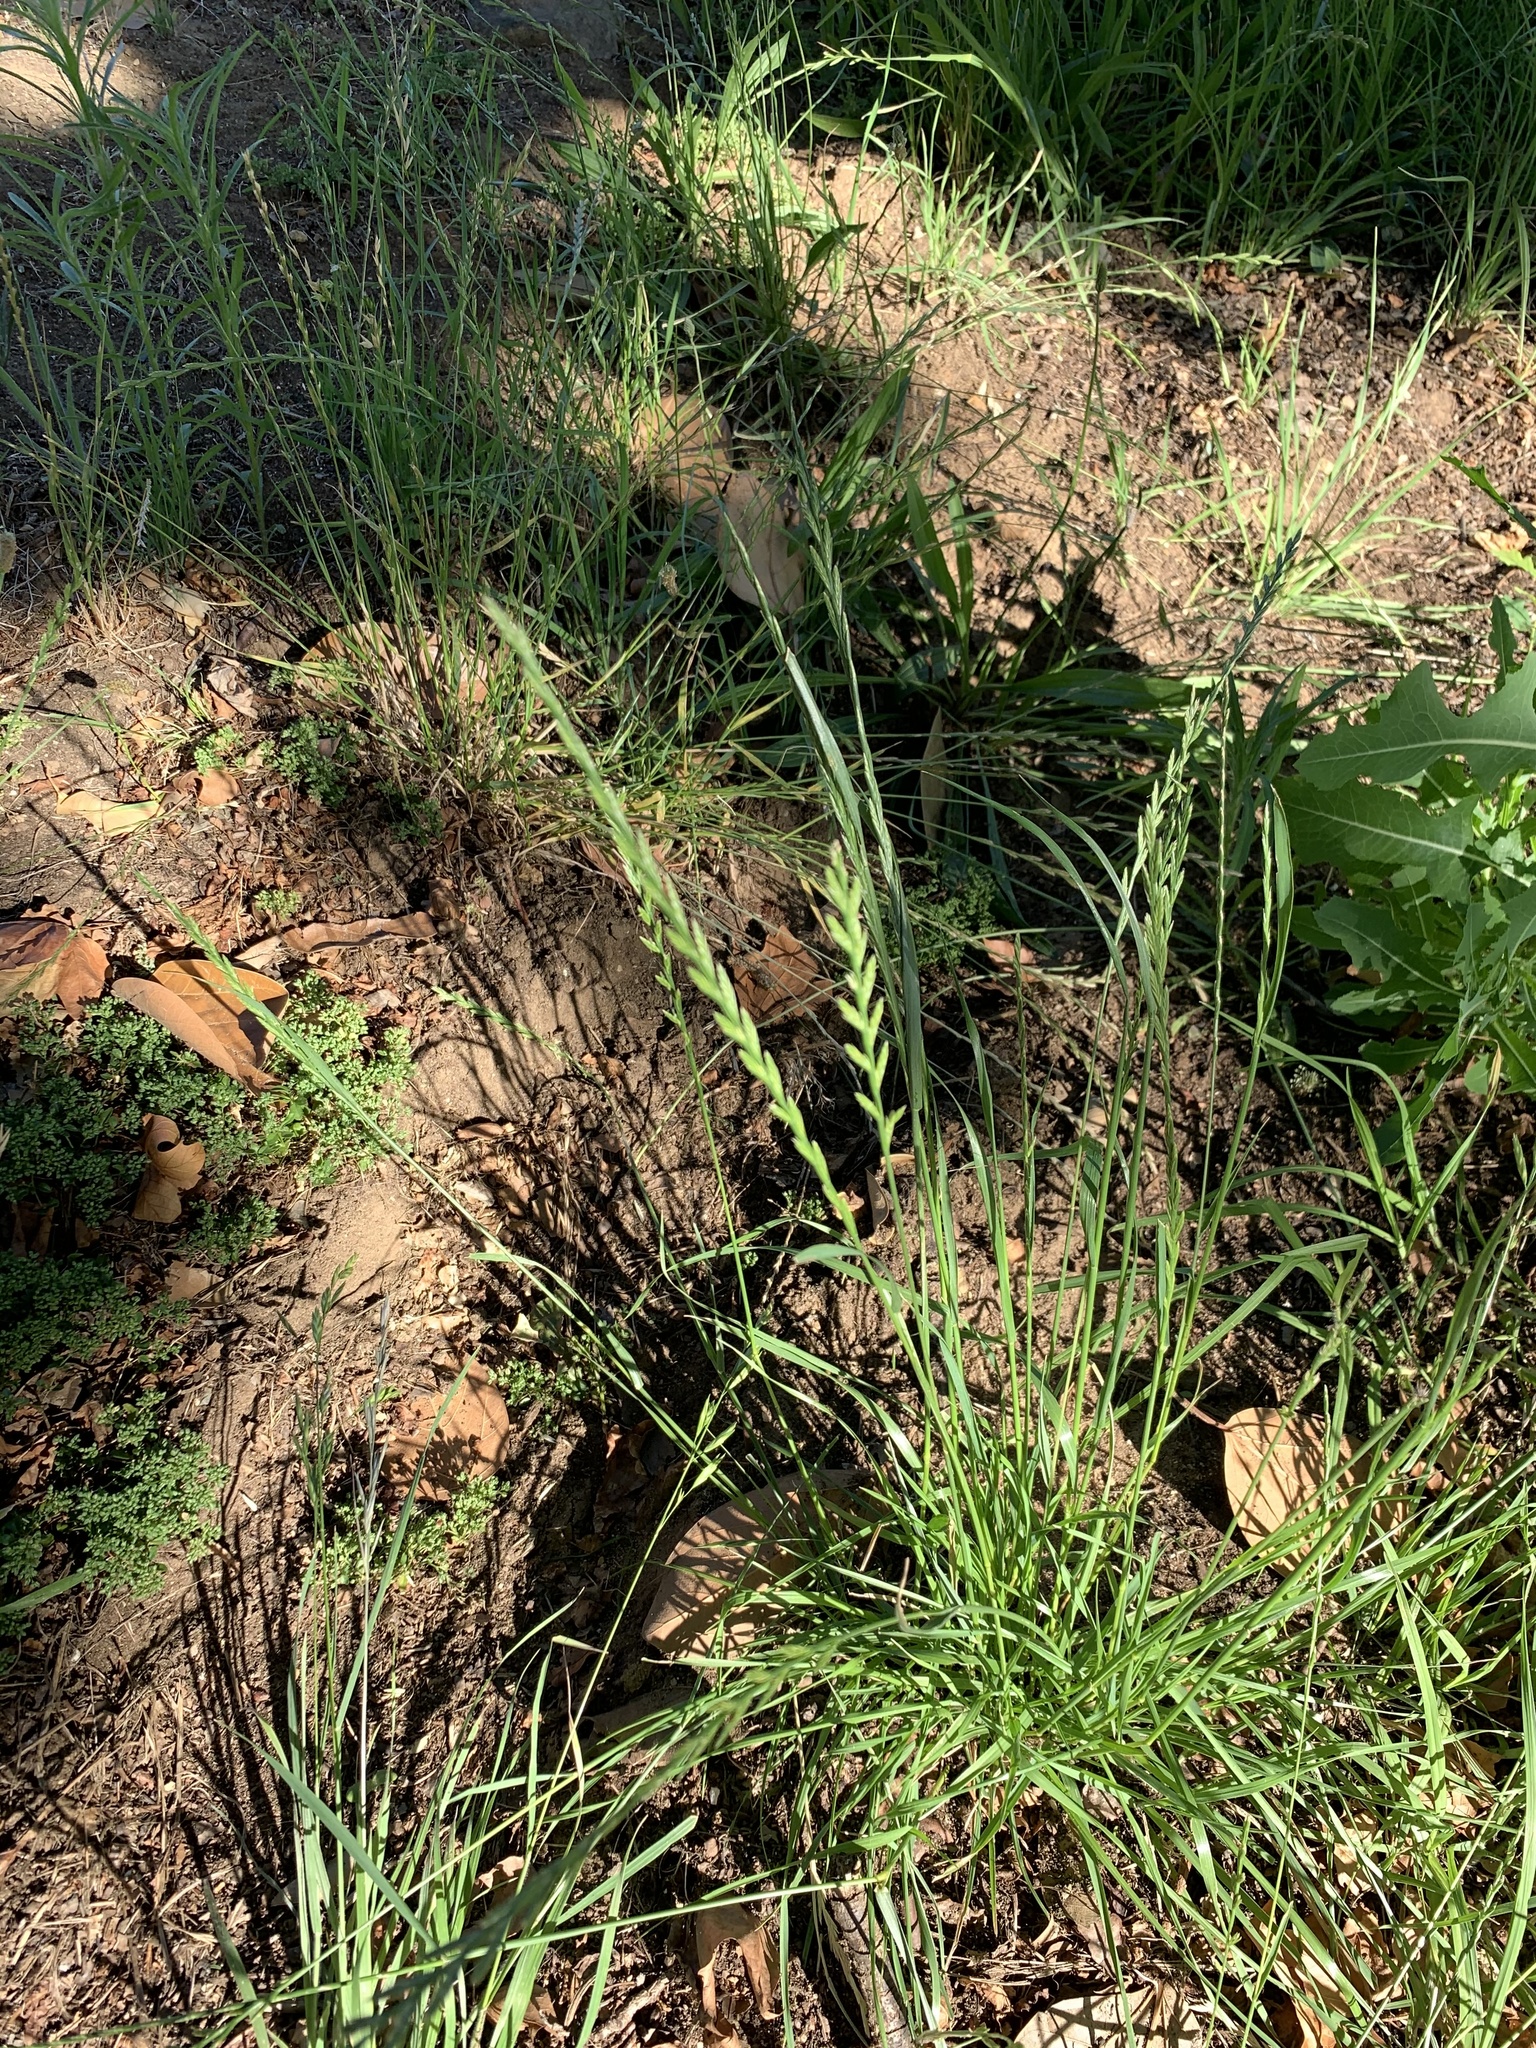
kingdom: Plantae
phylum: Tracheophyta
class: Liliopsida
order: Poales
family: Poaceae
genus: Lolium
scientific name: Lolium perenne
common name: Perennial ryegrass
